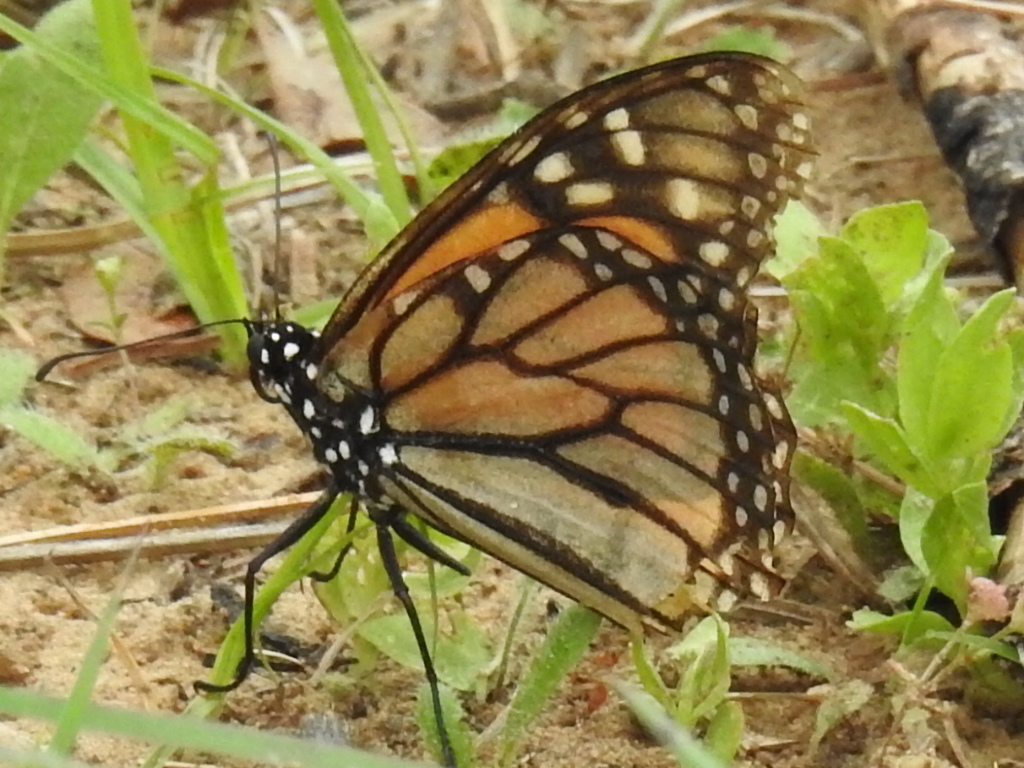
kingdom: Animalia
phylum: Arthropoda
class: Insecta
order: Lepidoptera
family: Nymphalidae
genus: Danaus
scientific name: Danaus plexippus
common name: Monarch
